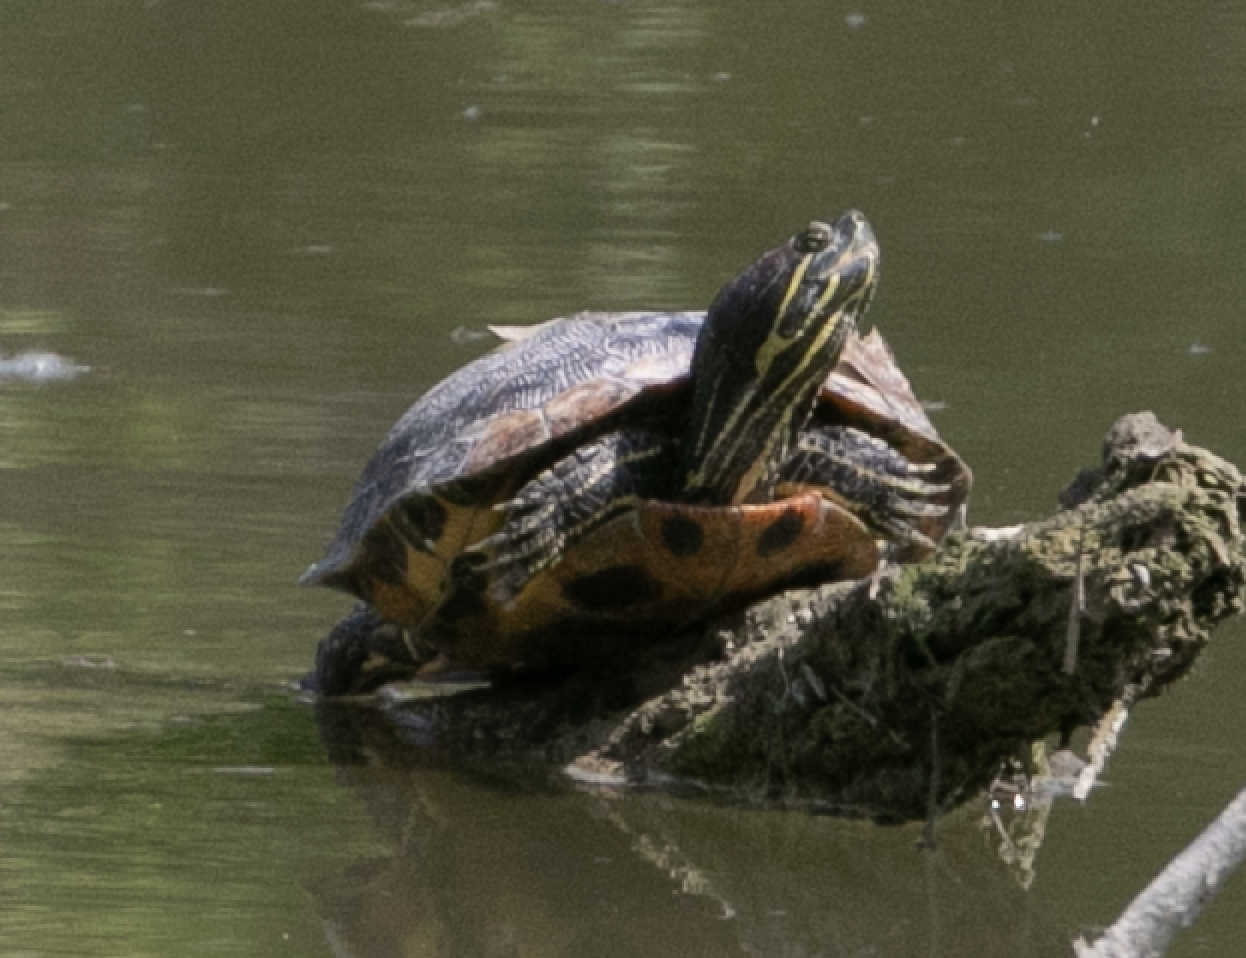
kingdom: Animalia
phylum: Chordata
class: Testudines
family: Emydidae
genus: Trachemys
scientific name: Trachemys scripta
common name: Slider
